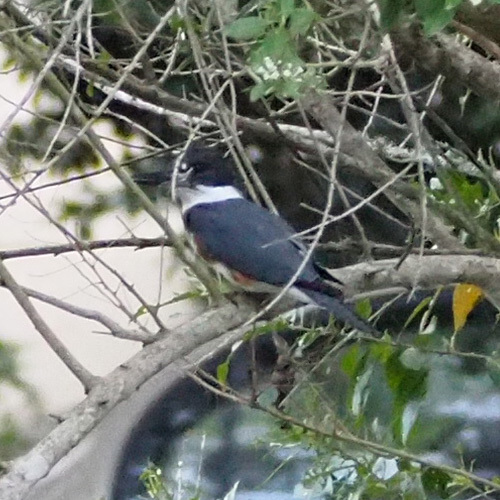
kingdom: Animalia
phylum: Chordata
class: Aves
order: Coraciiformes
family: Alcedinidae
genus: Megaceryle
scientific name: Megaceryle alcyon
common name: Belted kingfisher
